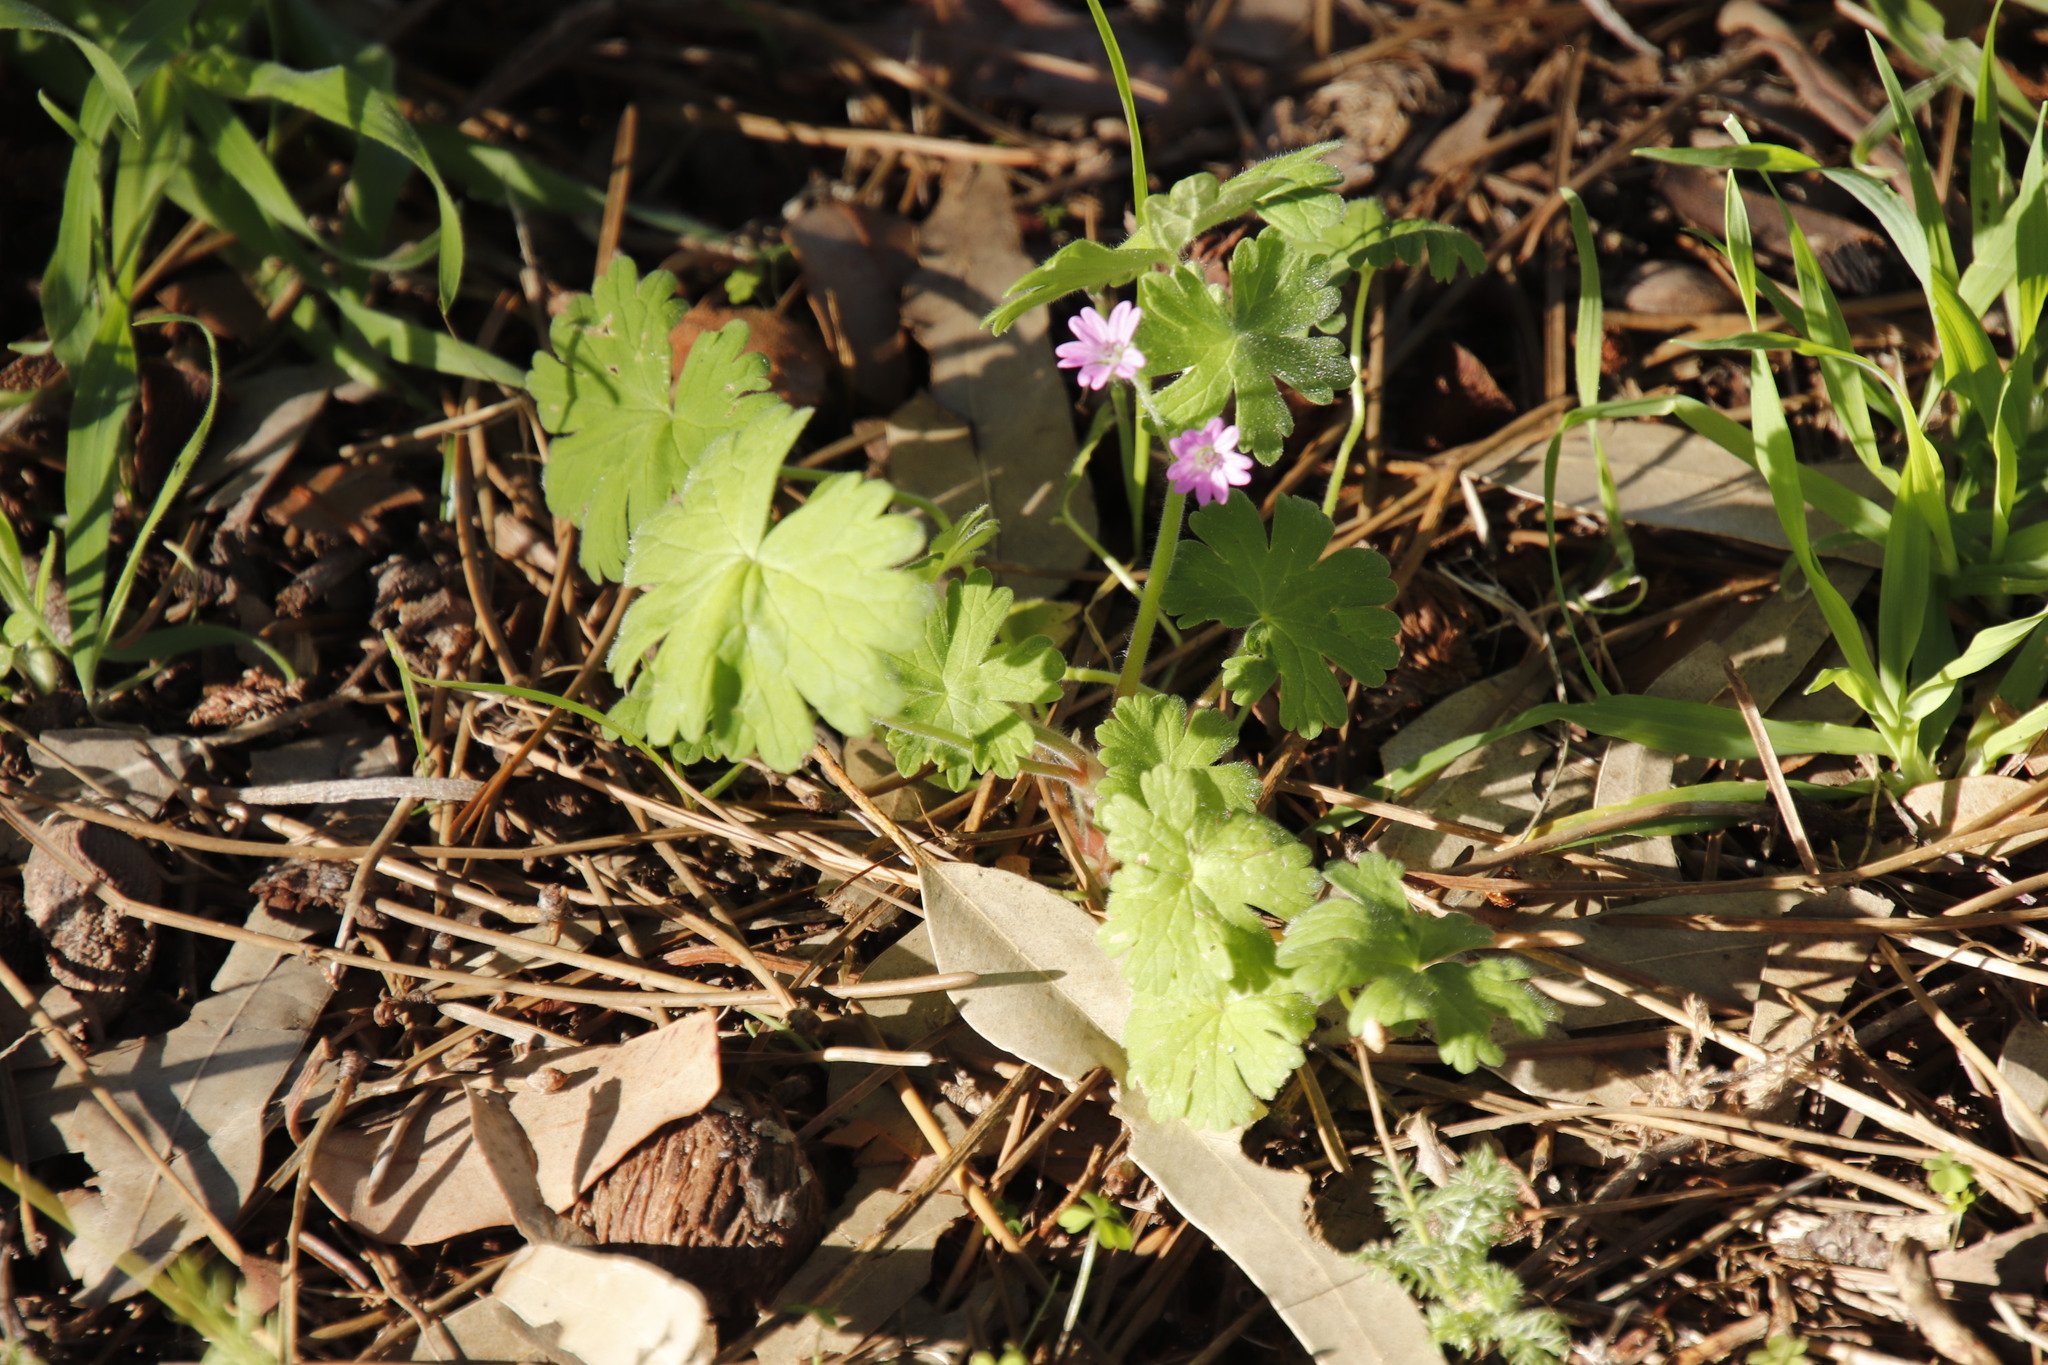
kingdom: Plantae
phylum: Tracheophyta
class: Magnoliopsida
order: Geraniales
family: Geraniaceae
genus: Geranium
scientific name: Geranium molle
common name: Dove's-foot crane's-bill
